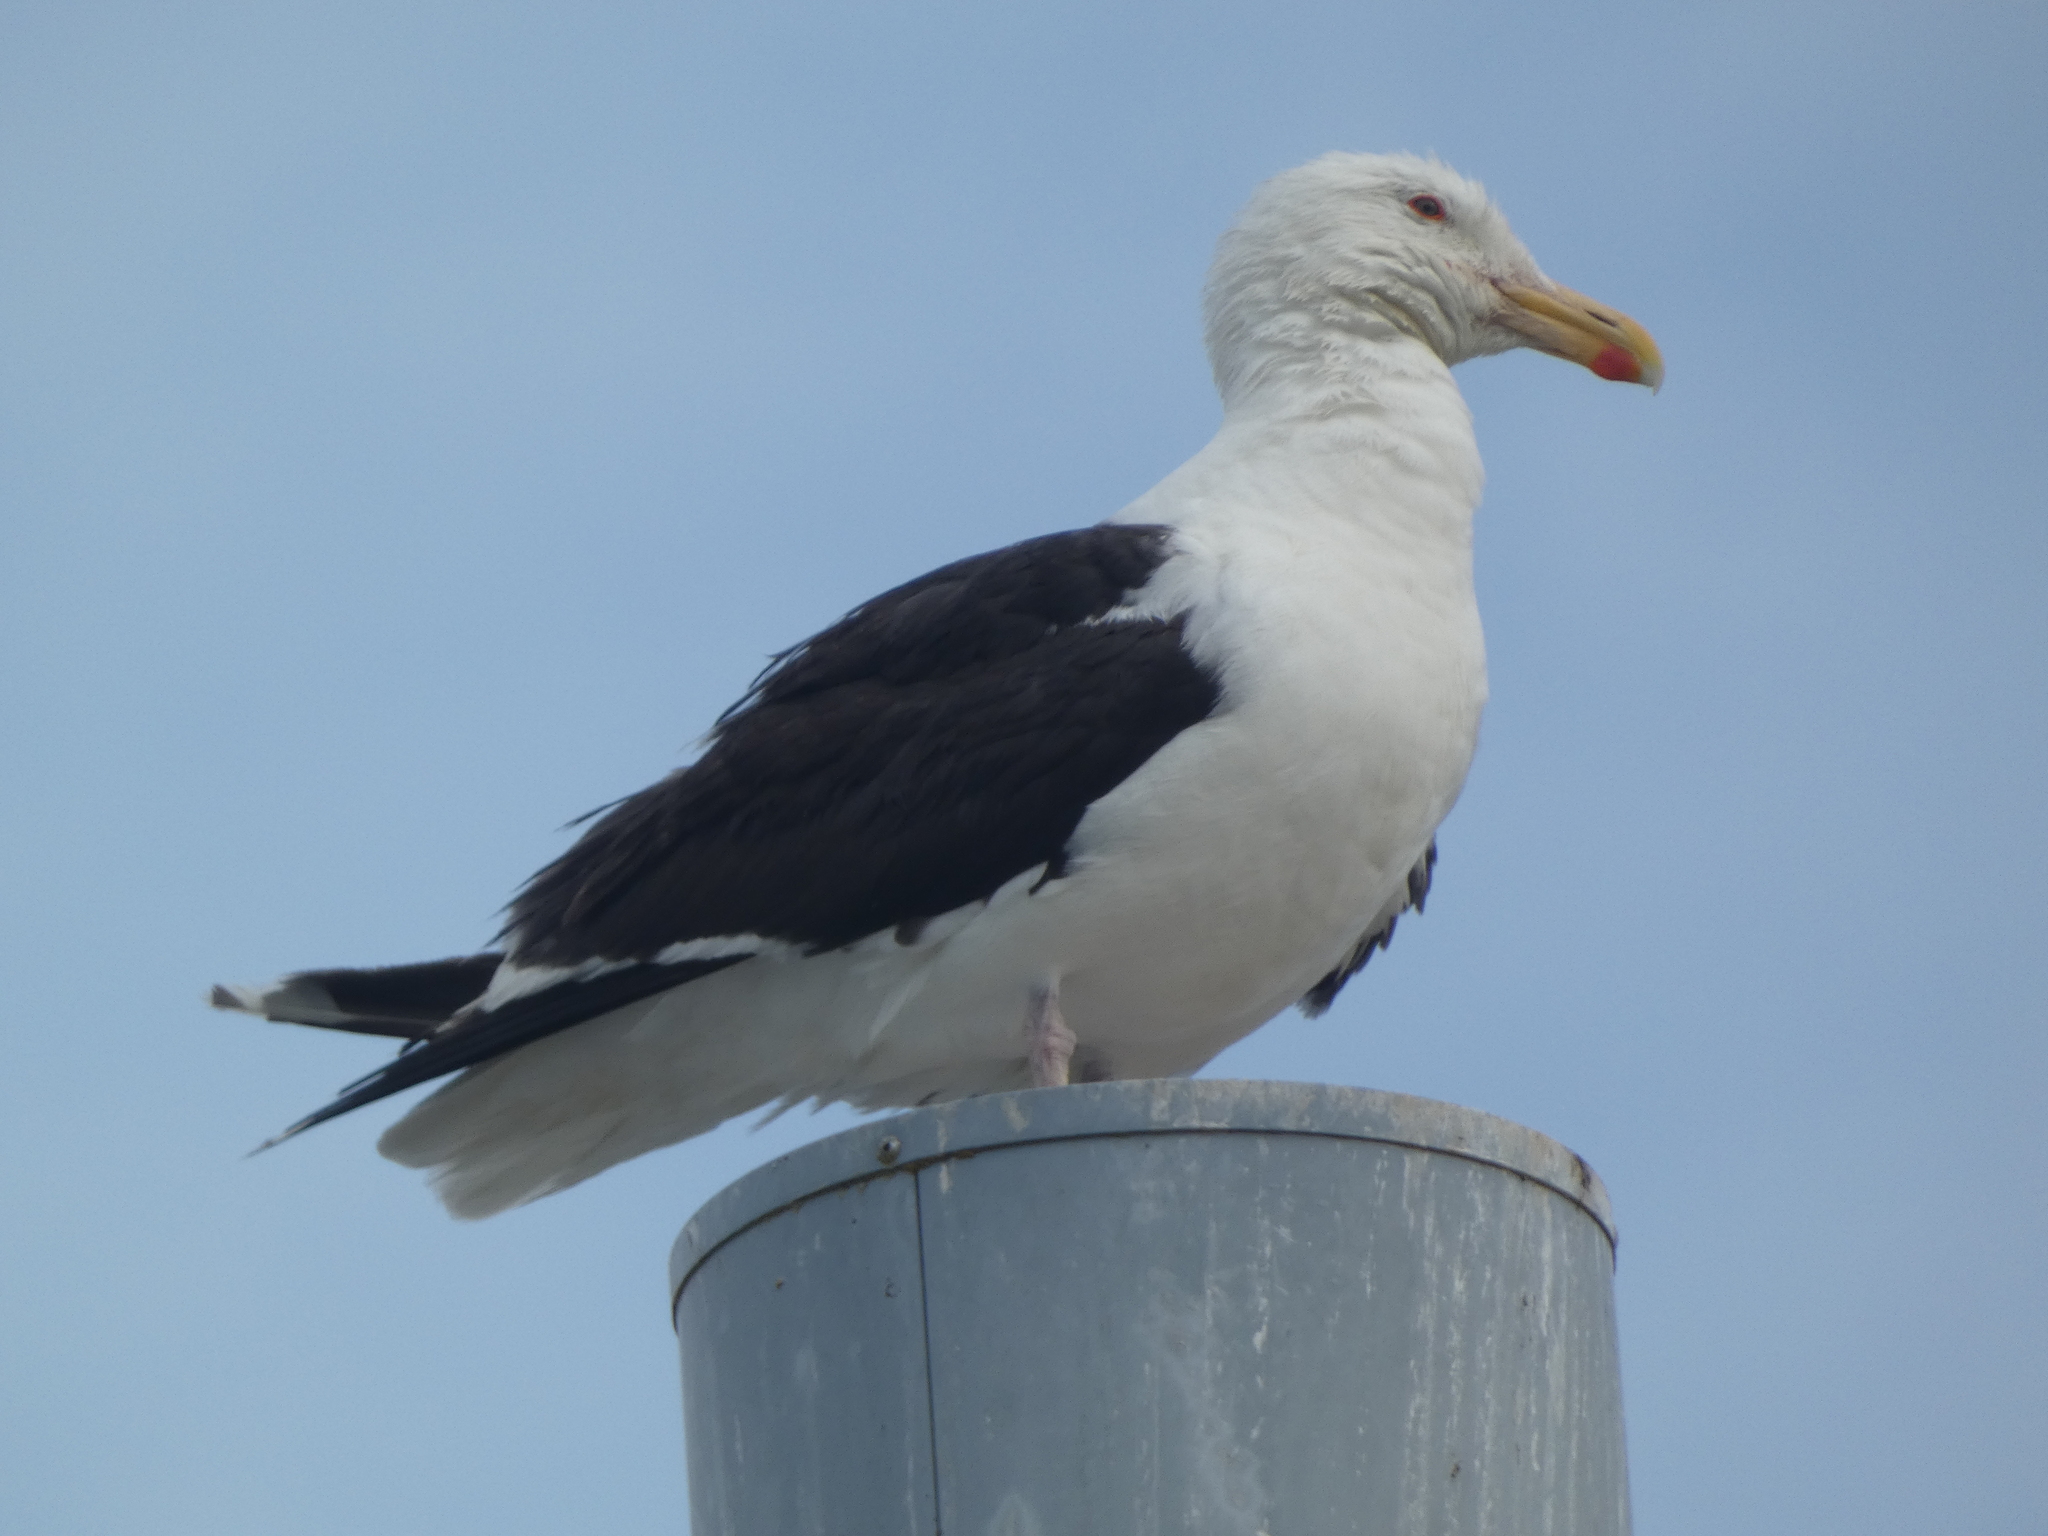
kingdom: Animalia
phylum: Chordata
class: Aves
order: Charadriiformes
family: Laridae
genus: Larus
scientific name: Larus marinus
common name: Great black-backed gull
